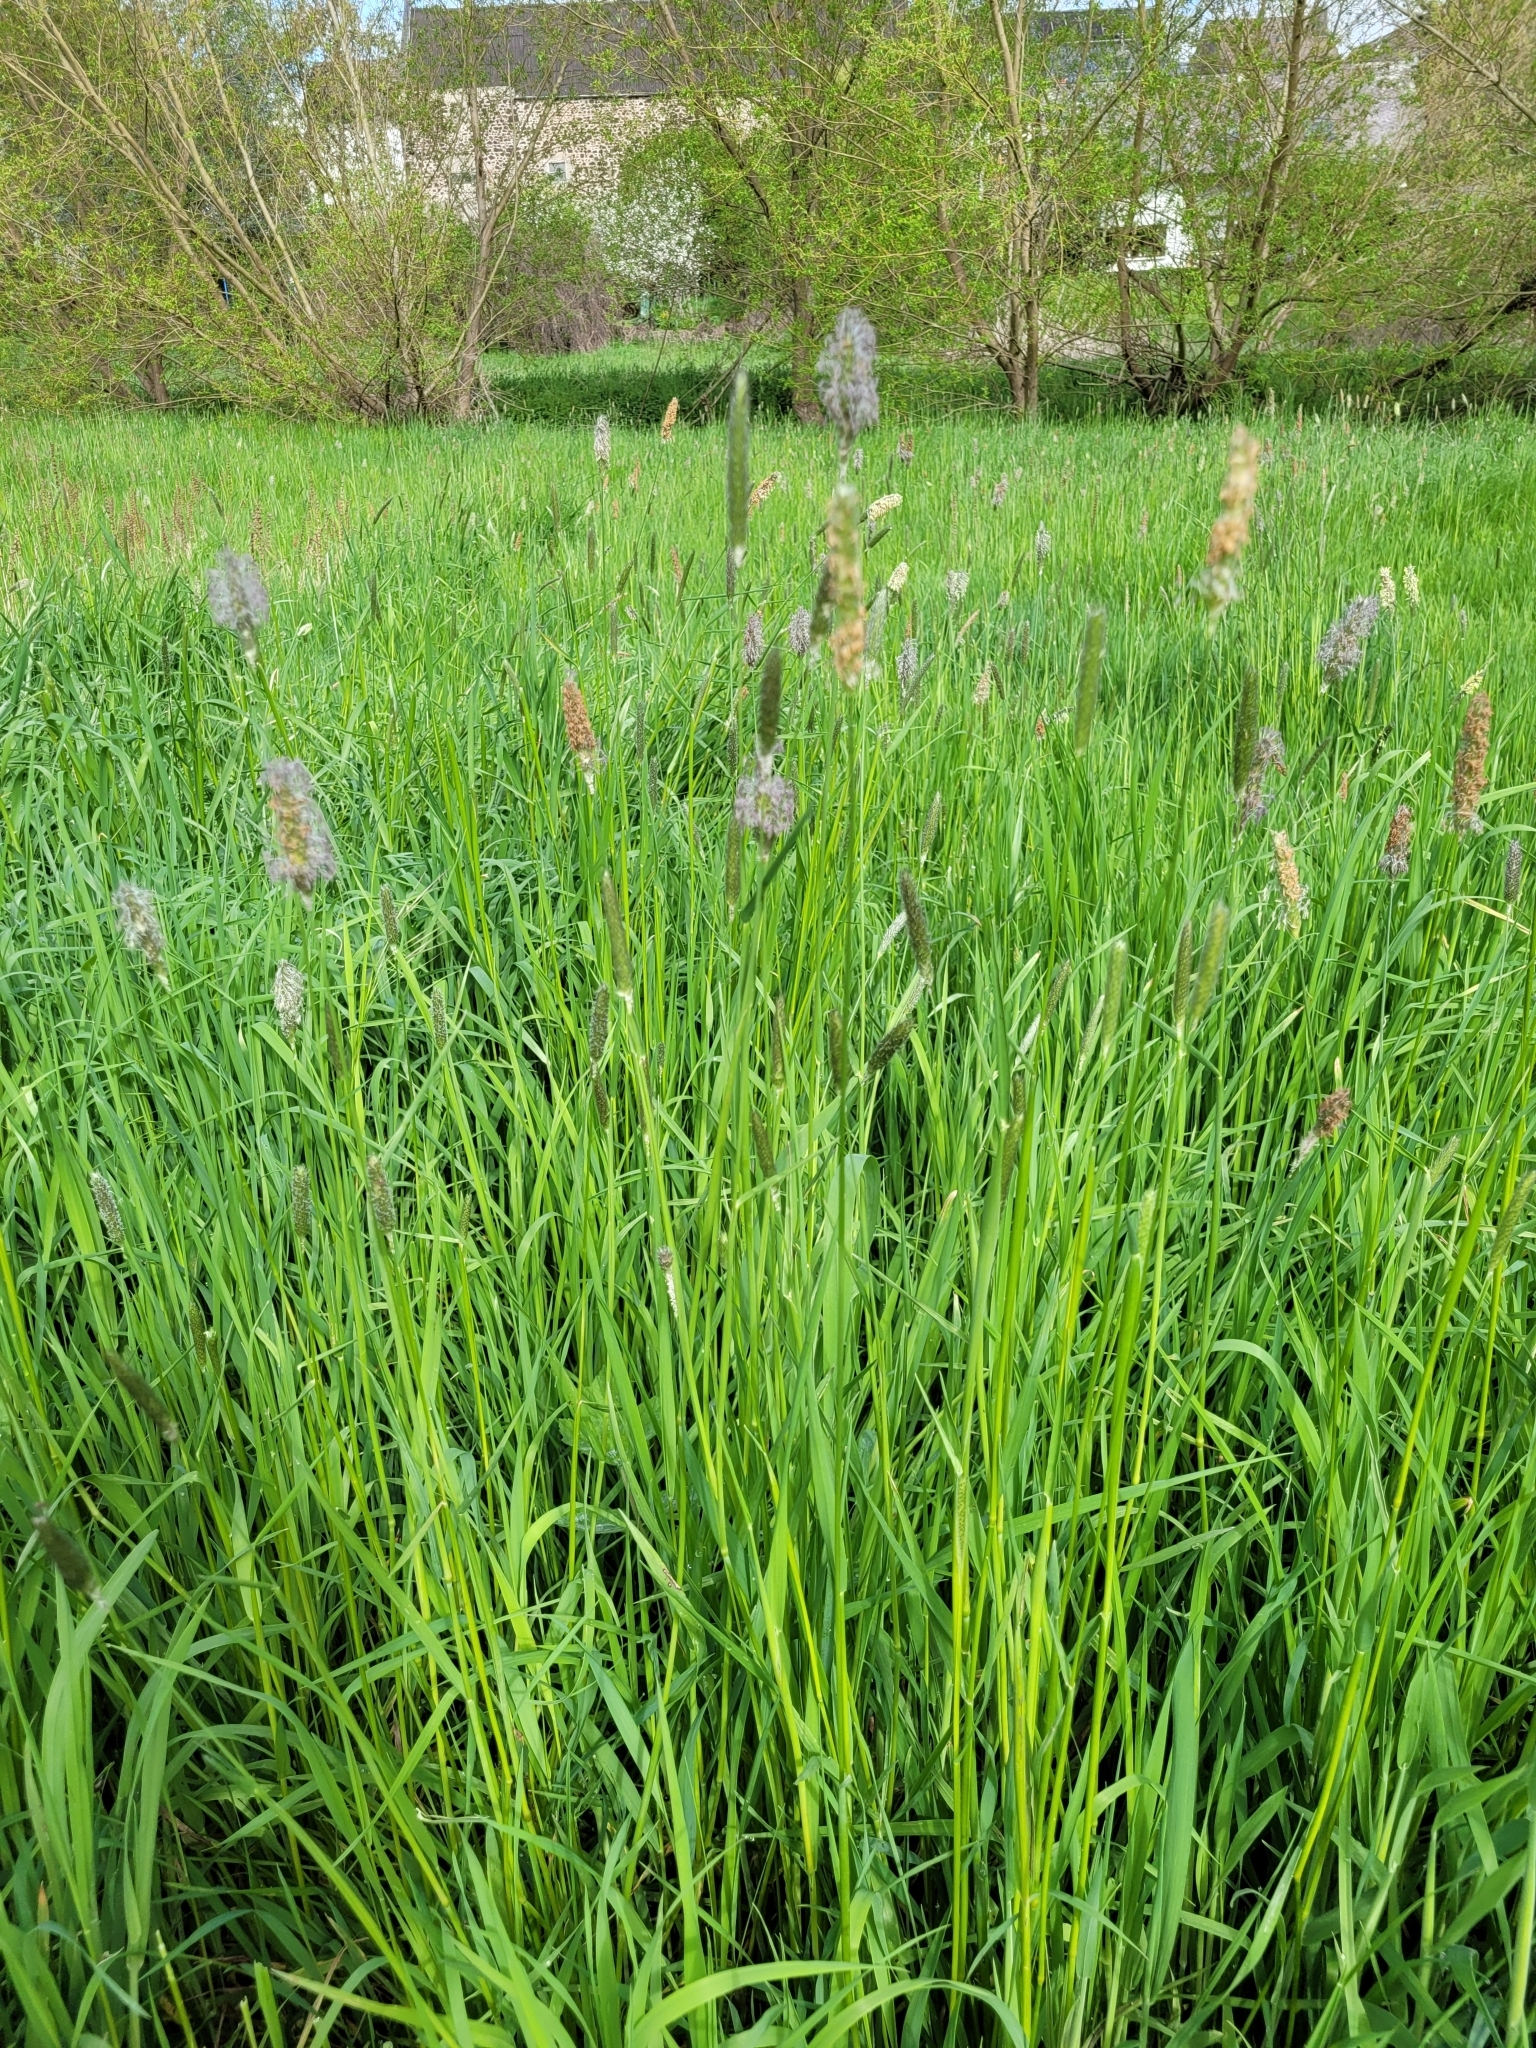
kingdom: Plantae
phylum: Tracheophyta
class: Liliopsida
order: Poales
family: Poaceae
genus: Alopecurus
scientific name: Alopecurus pratensis
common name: Meadow foxtail
